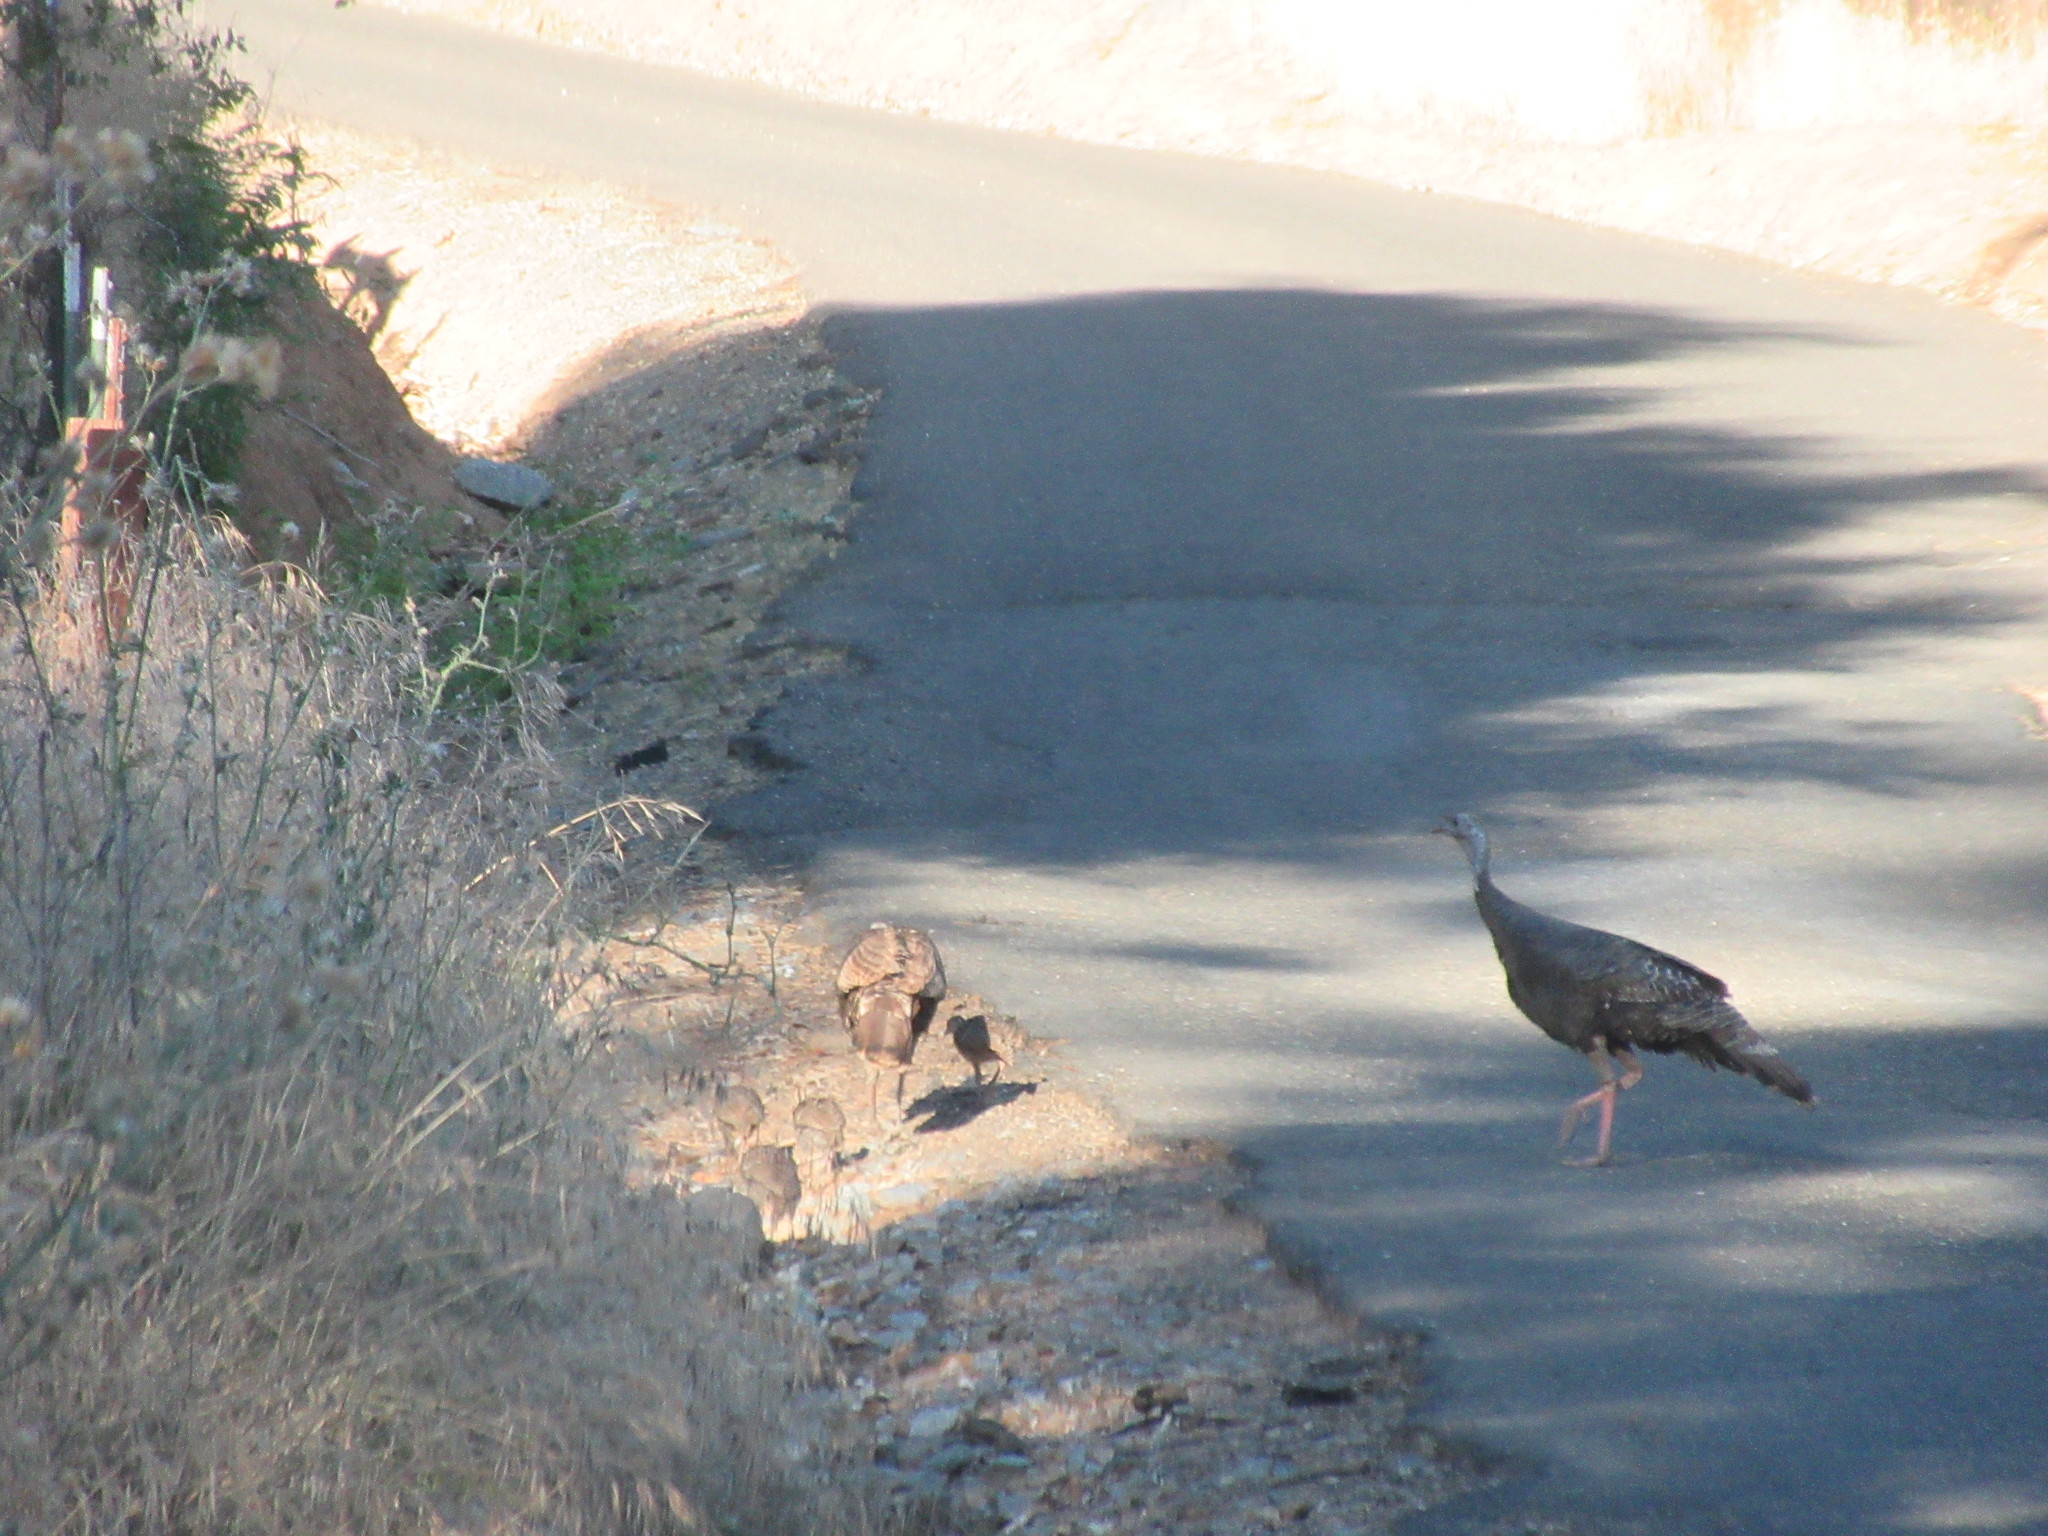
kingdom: Animalia
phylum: Chordata
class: Aves
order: Galliformes
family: Phasianidae
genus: Meleagris
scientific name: Meleagris gallopavo
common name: Wild turkey
